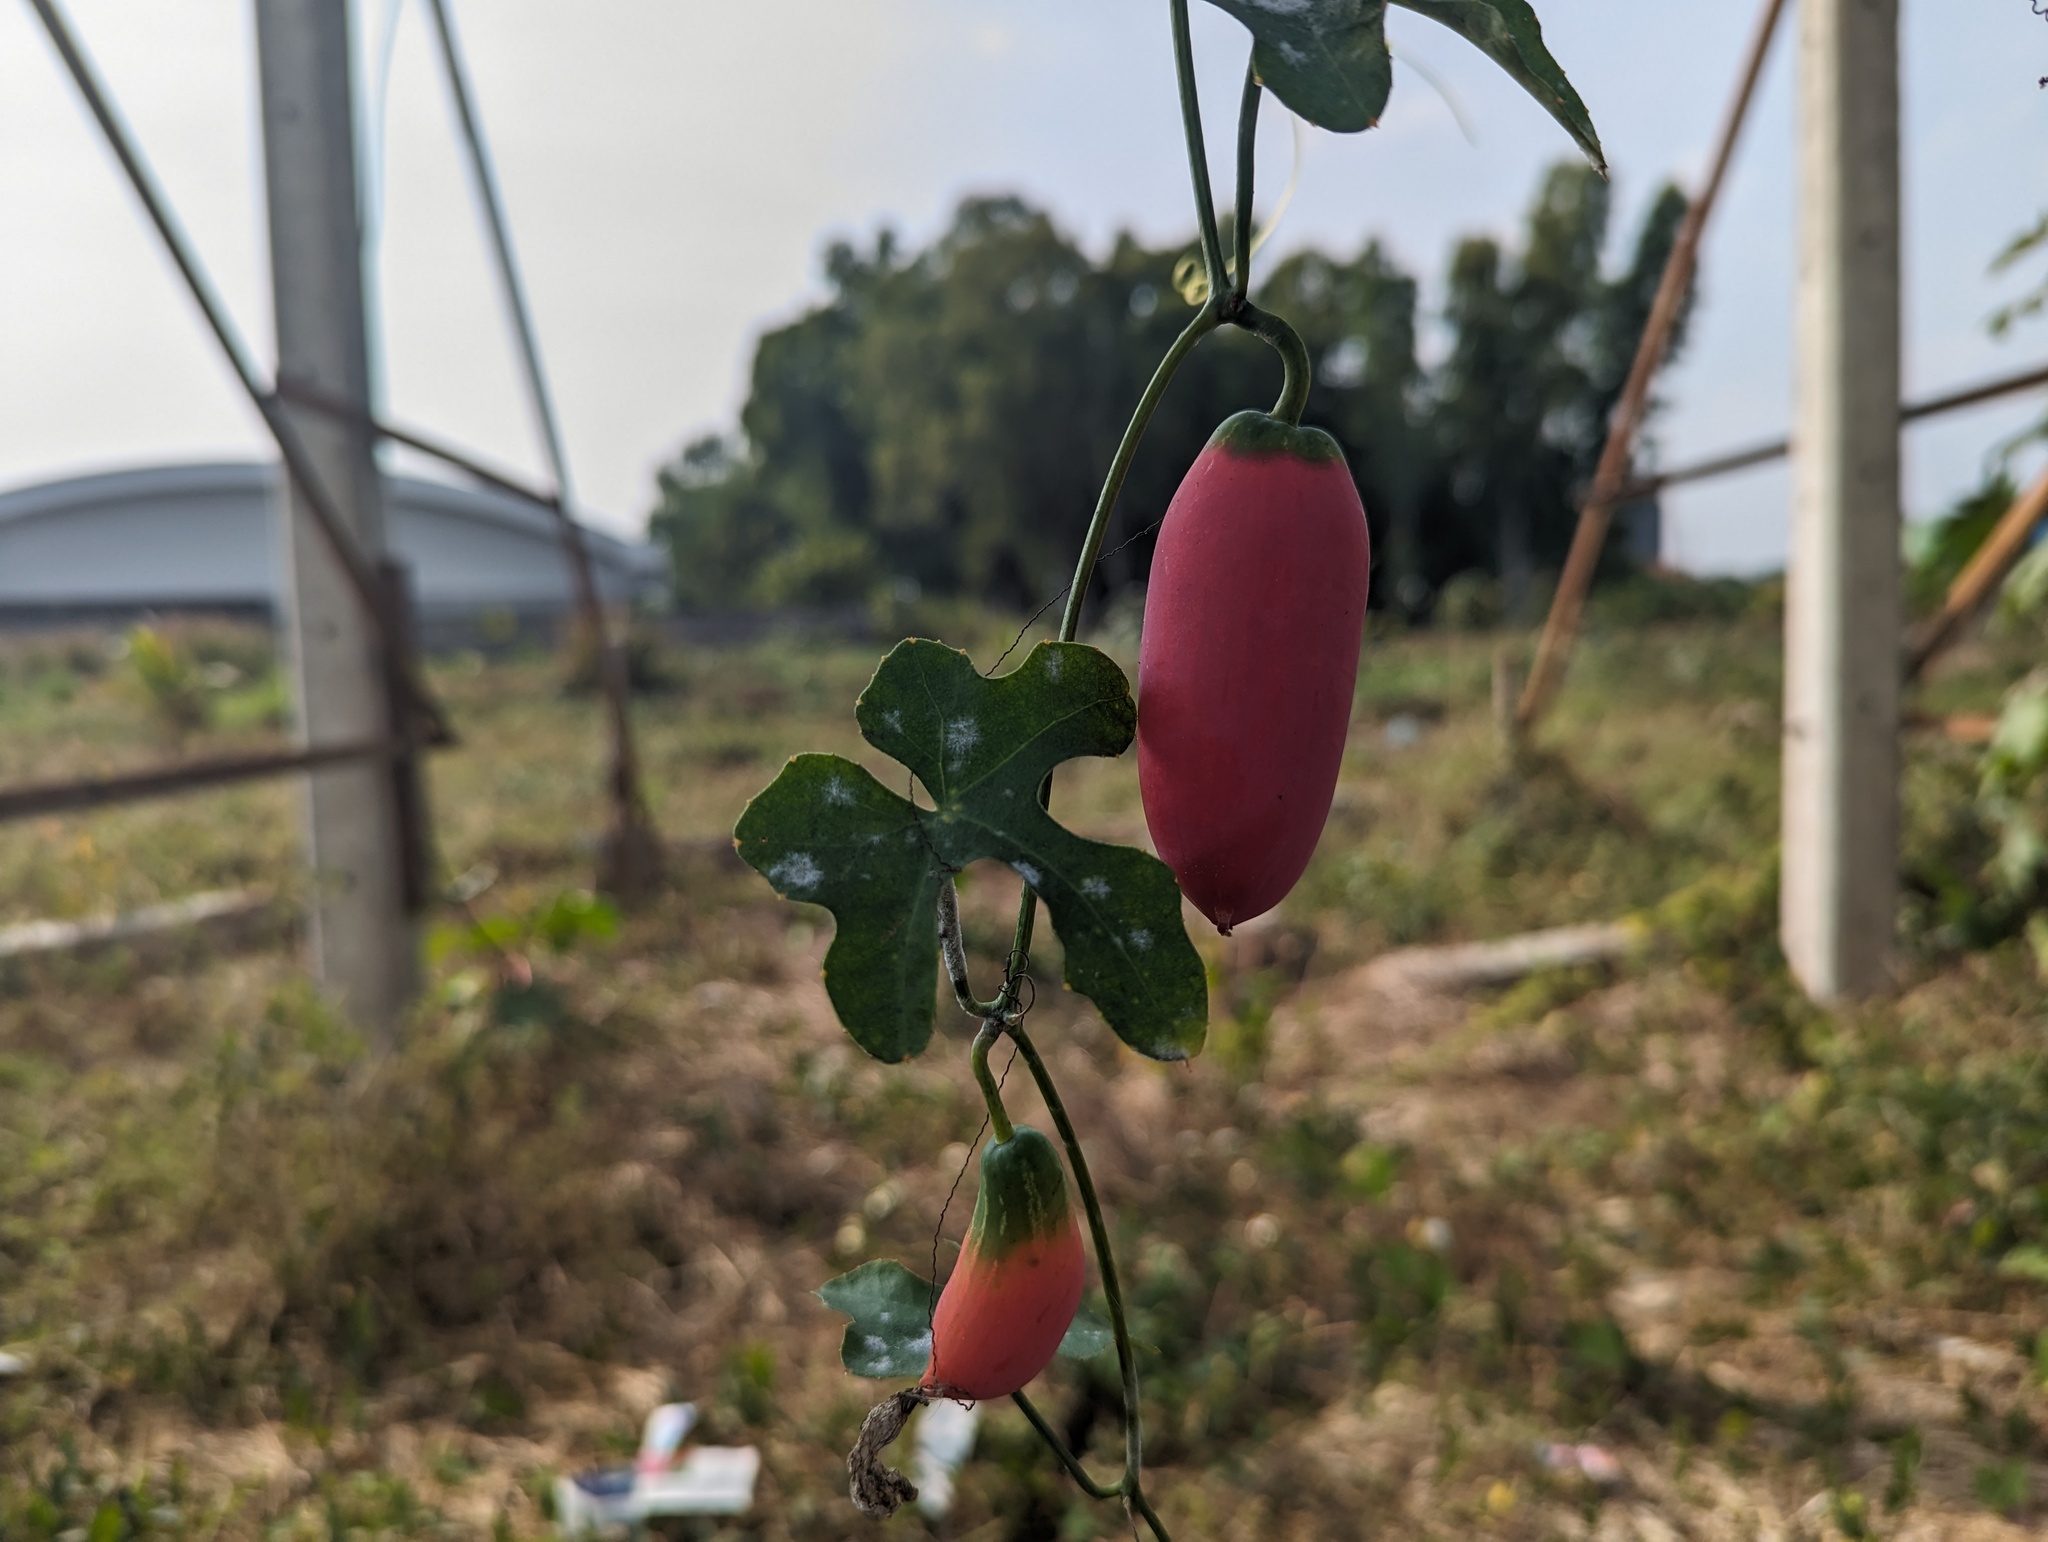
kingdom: Plantae
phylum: Tracheophyta
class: Magnoliopsida
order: Cucurbitales
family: Cucurbitaceae
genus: Coccinia
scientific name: Coccinia grandis
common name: Ivy gourd
